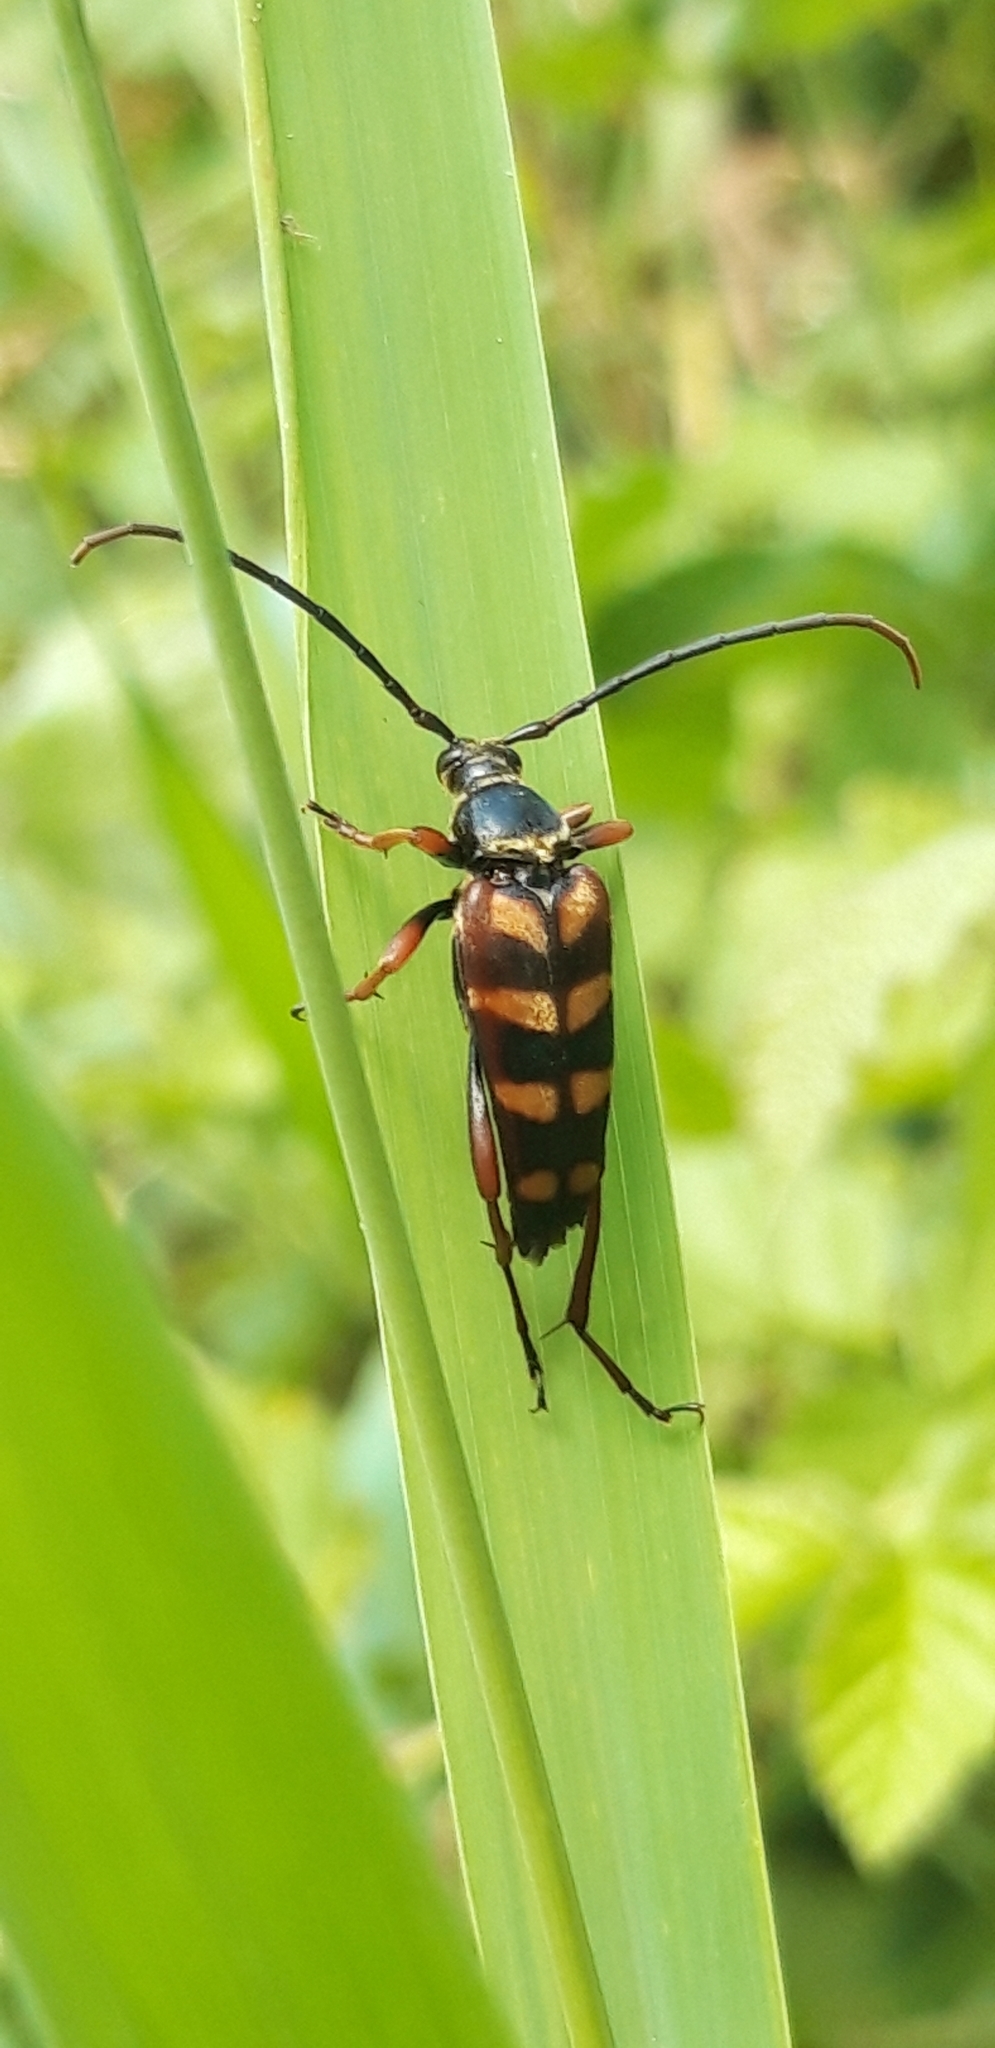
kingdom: Animalia
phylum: Arthropoda
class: Insecta
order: Coleoptera
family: Cerambycidae
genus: Leptura
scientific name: Leptura aurulenta
